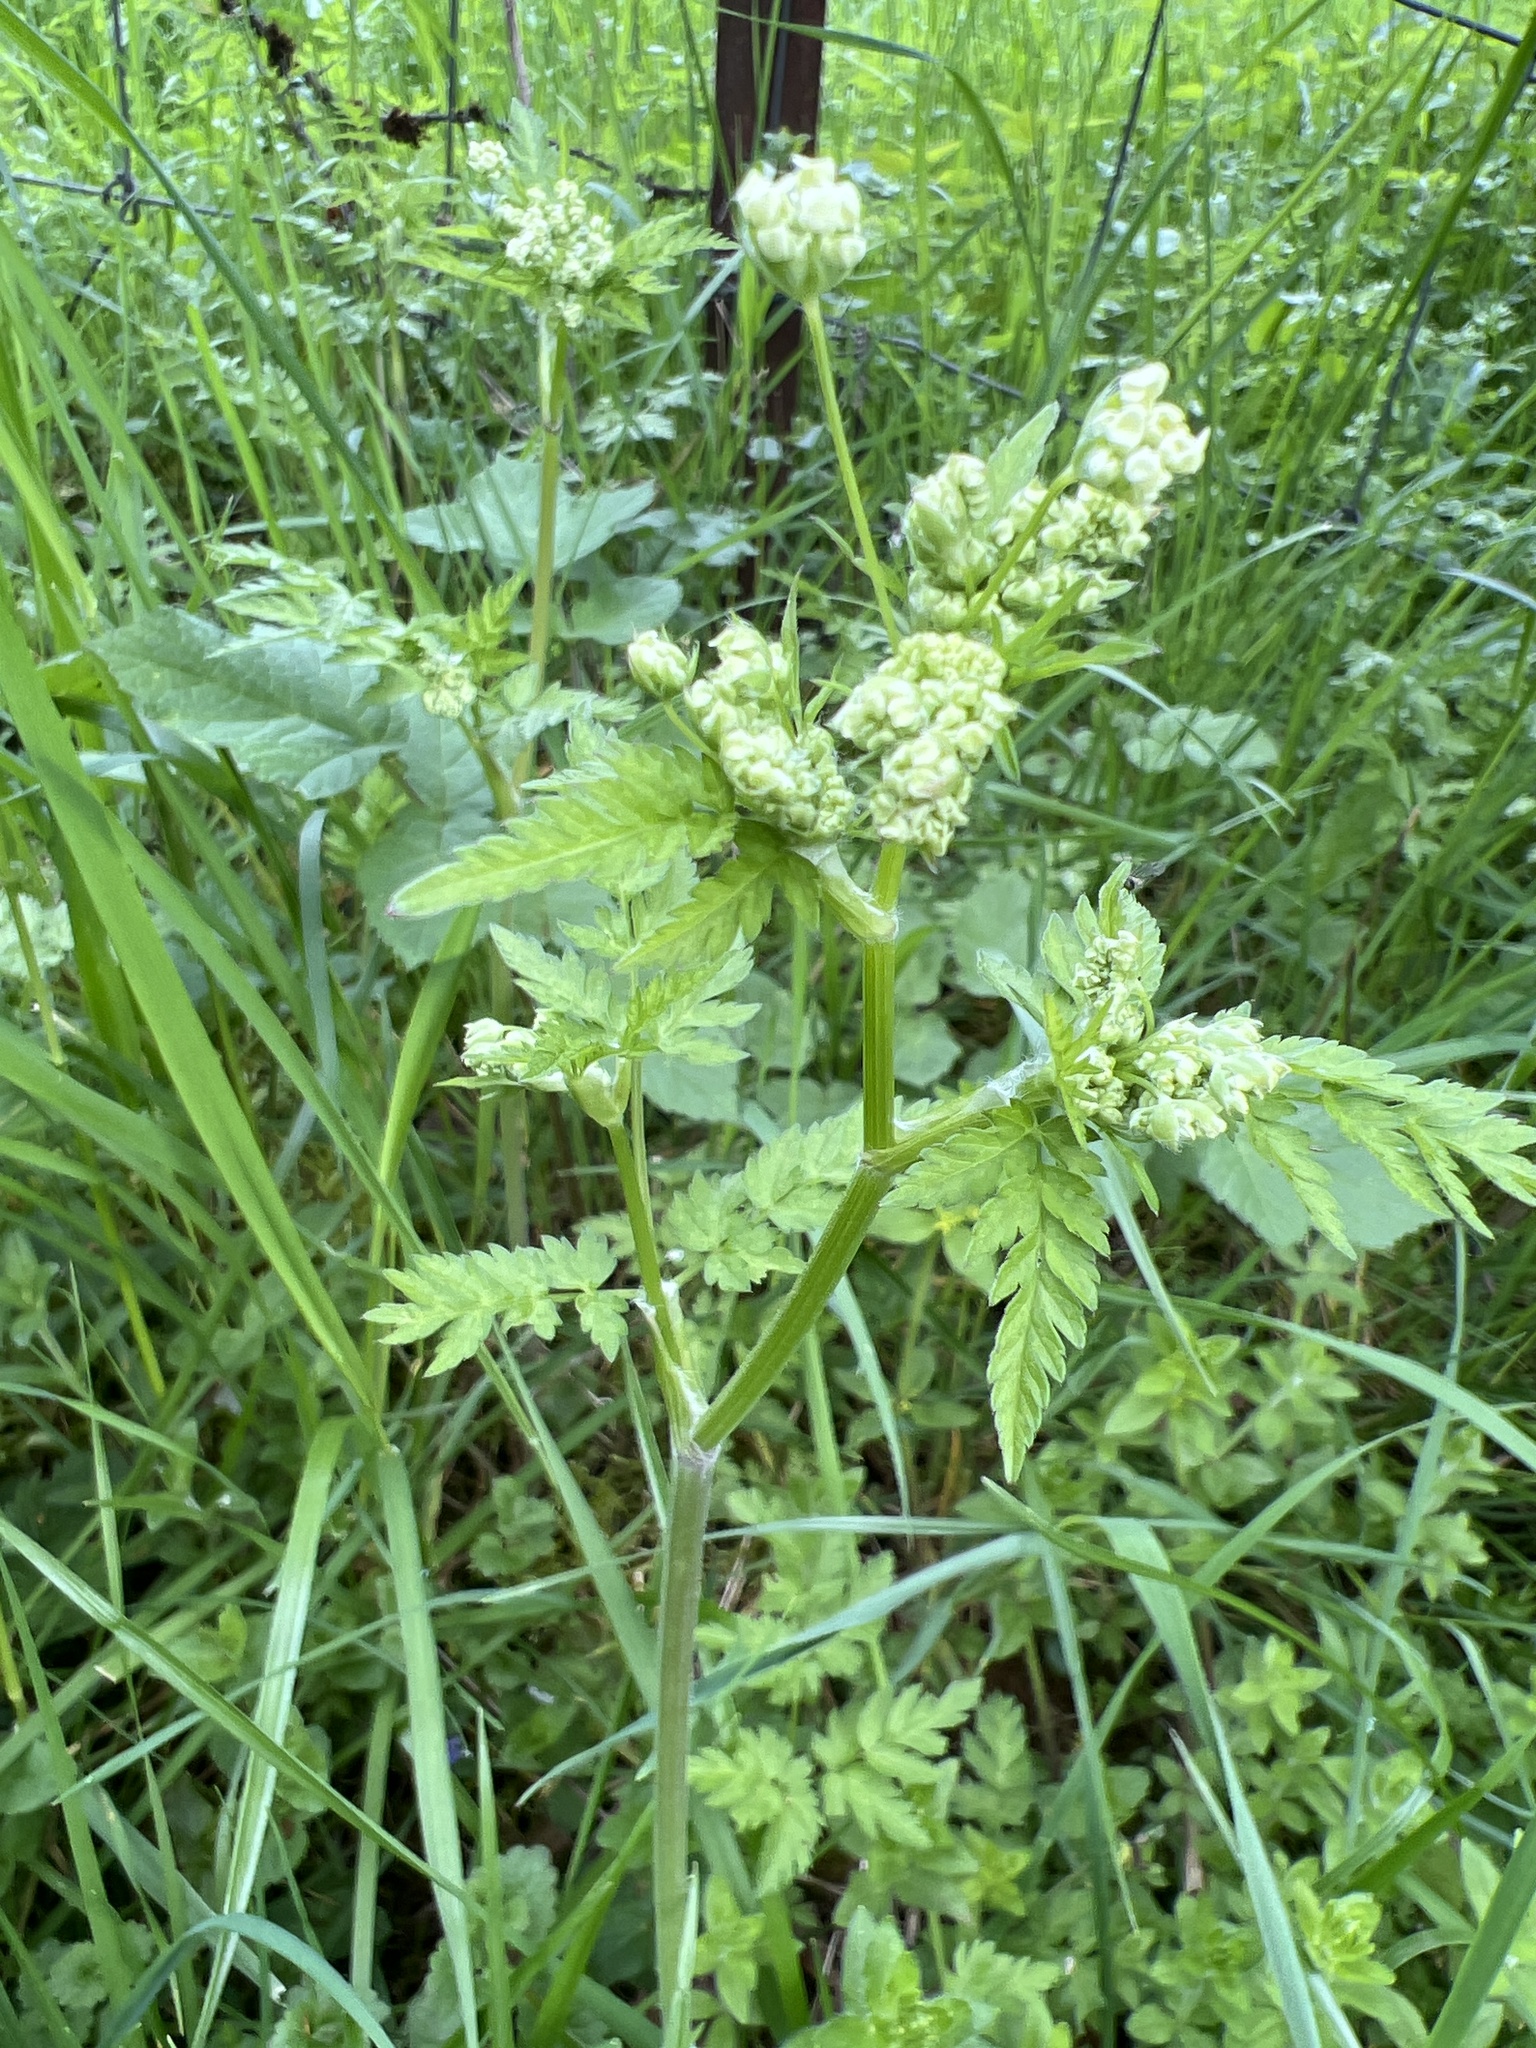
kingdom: Plantae
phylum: Tracheophyta
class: Magnoliopsida
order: Apiales
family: Apiaceae
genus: Anthriscus
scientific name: Anthriscus sylvestris
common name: Cow parsley
